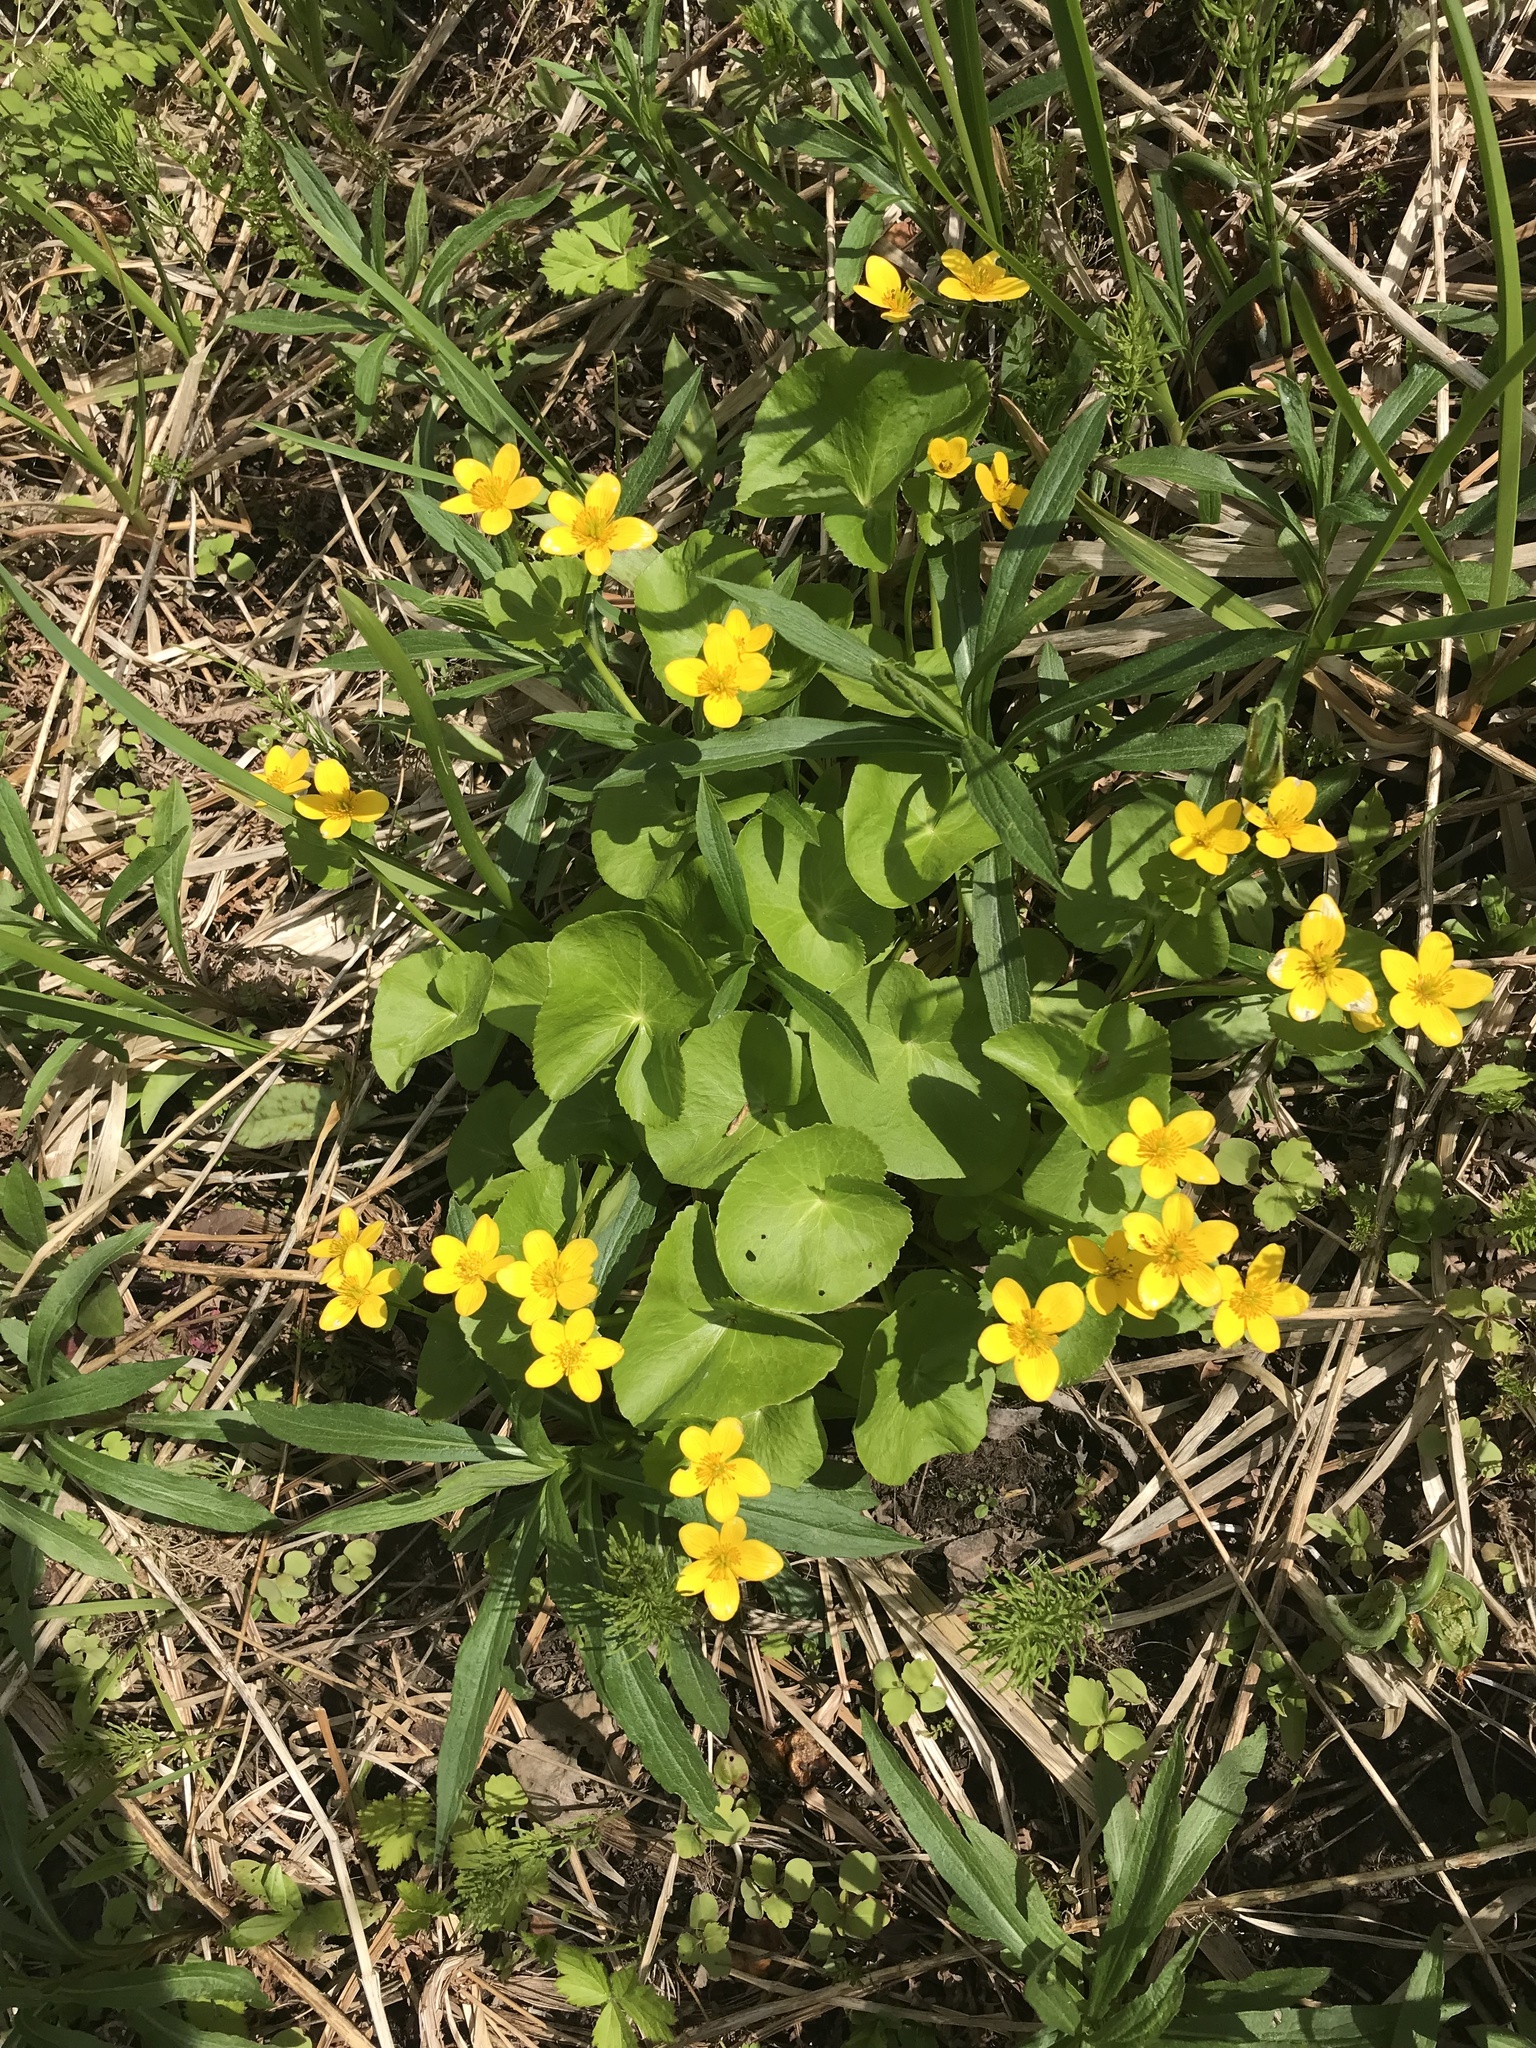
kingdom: Plantae
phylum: Tracheophyta
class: Magnoliopsida
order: Ranunculales
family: Ranunculaceae
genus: Caltha
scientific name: Caltha palustris
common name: Marsh marigold
